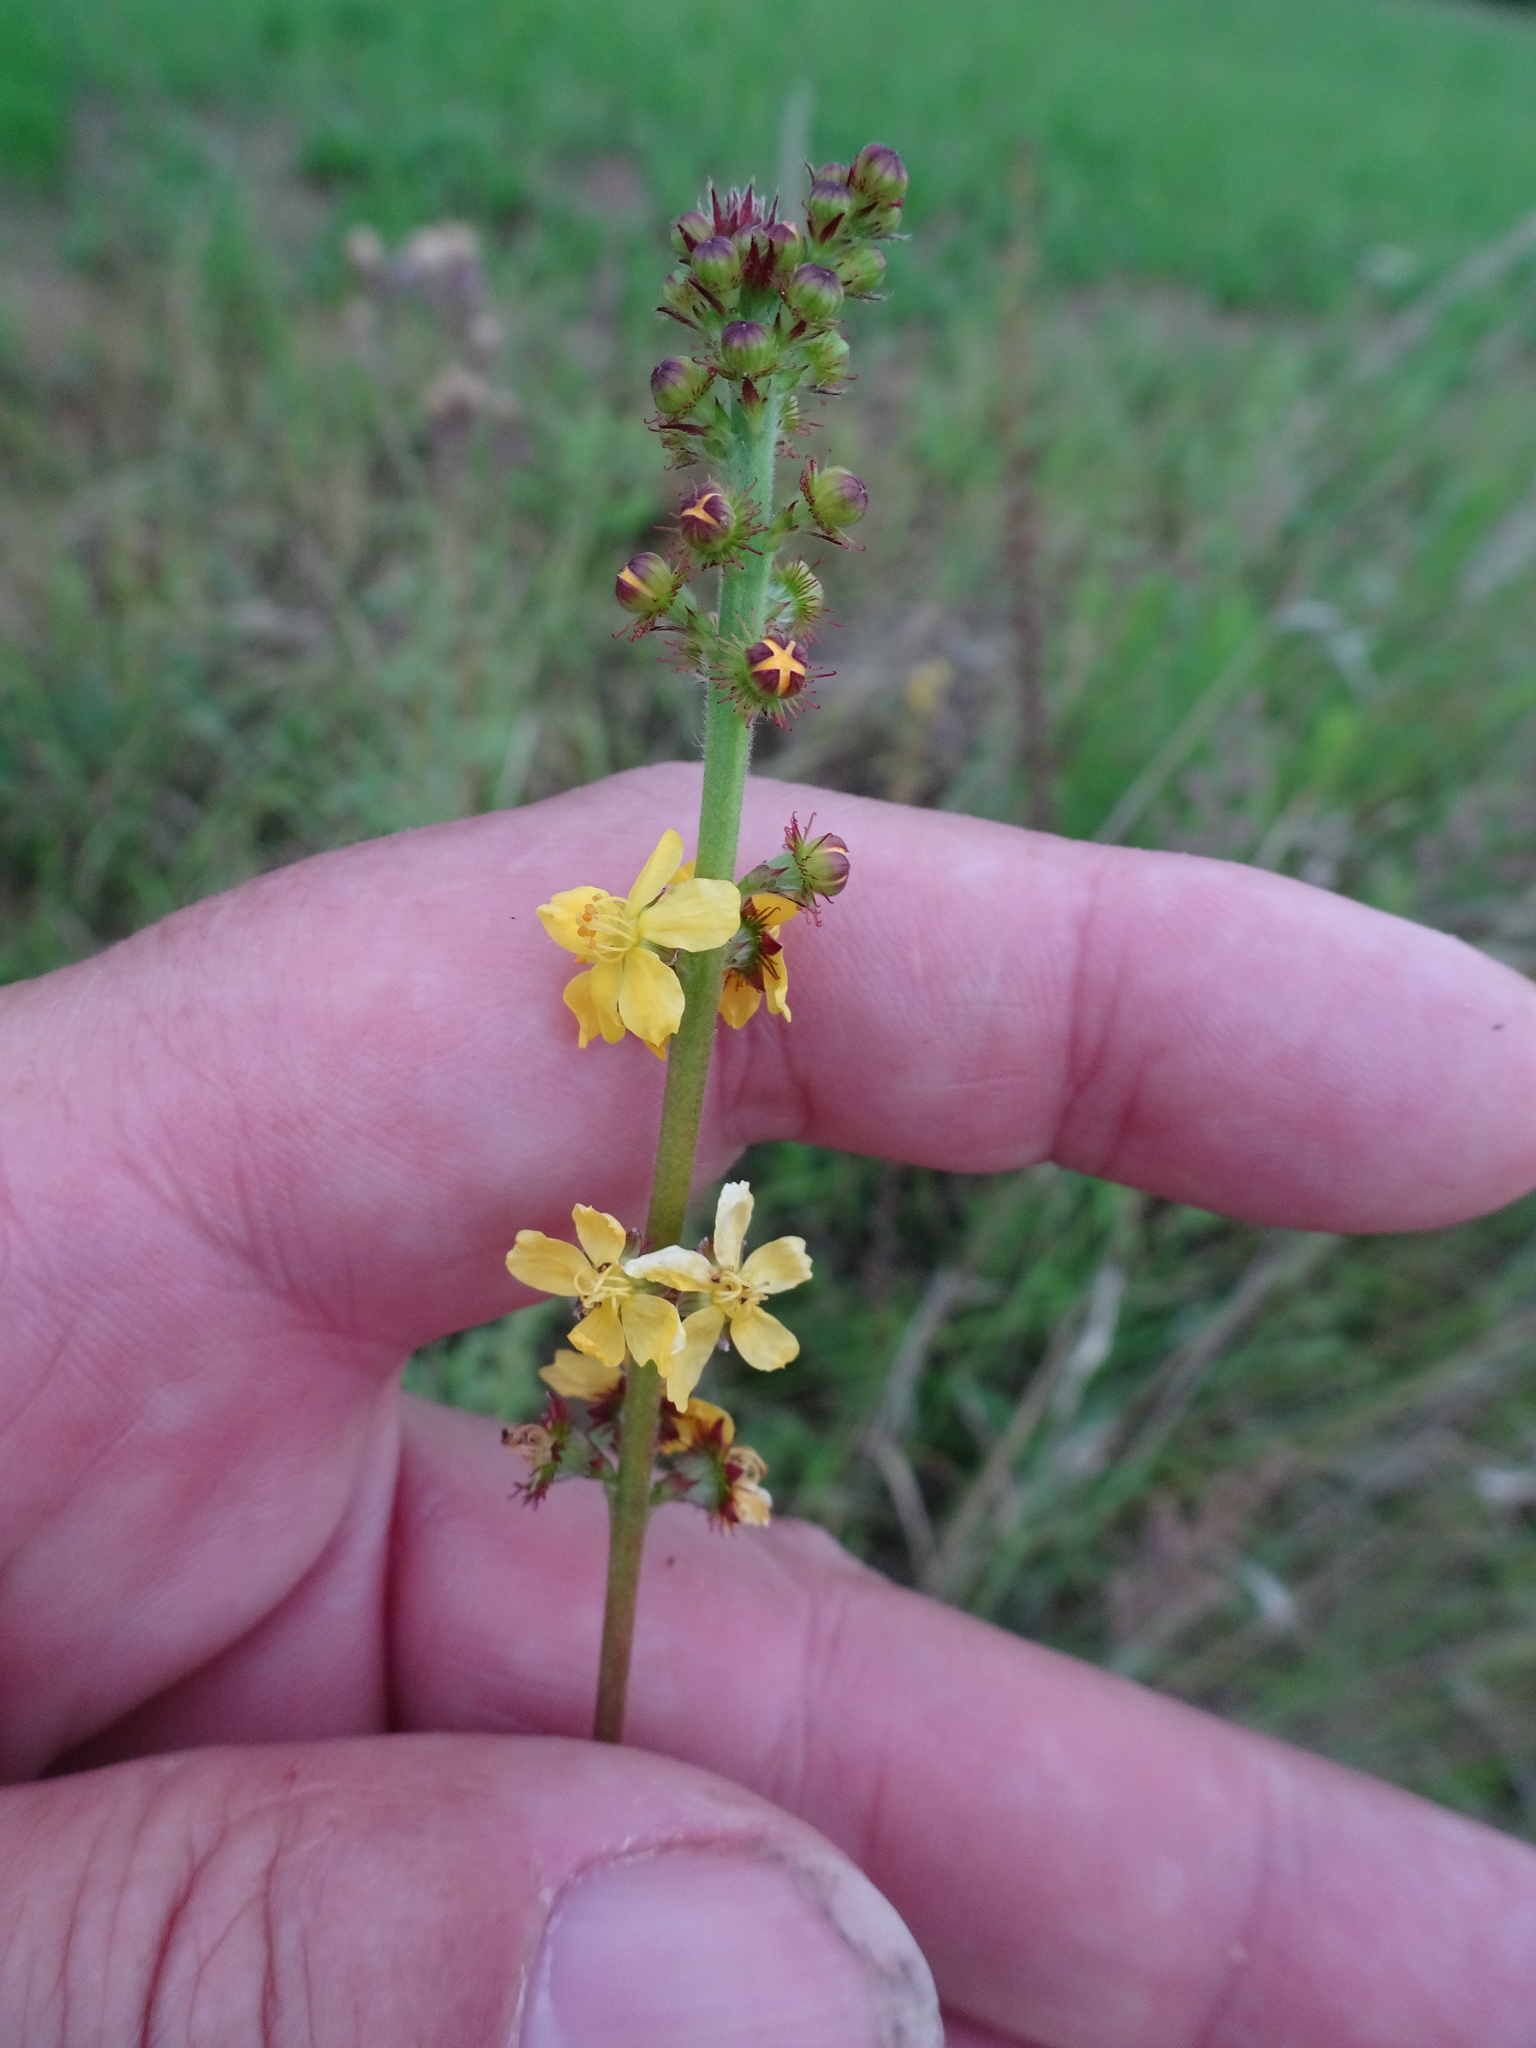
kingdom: Plantae
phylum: Tracheophyta
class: Magnoliopsida
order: Rosales
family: Rosaceae
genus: Agrimonia
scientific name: Agrimonia eupatoria
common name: Agrimony
